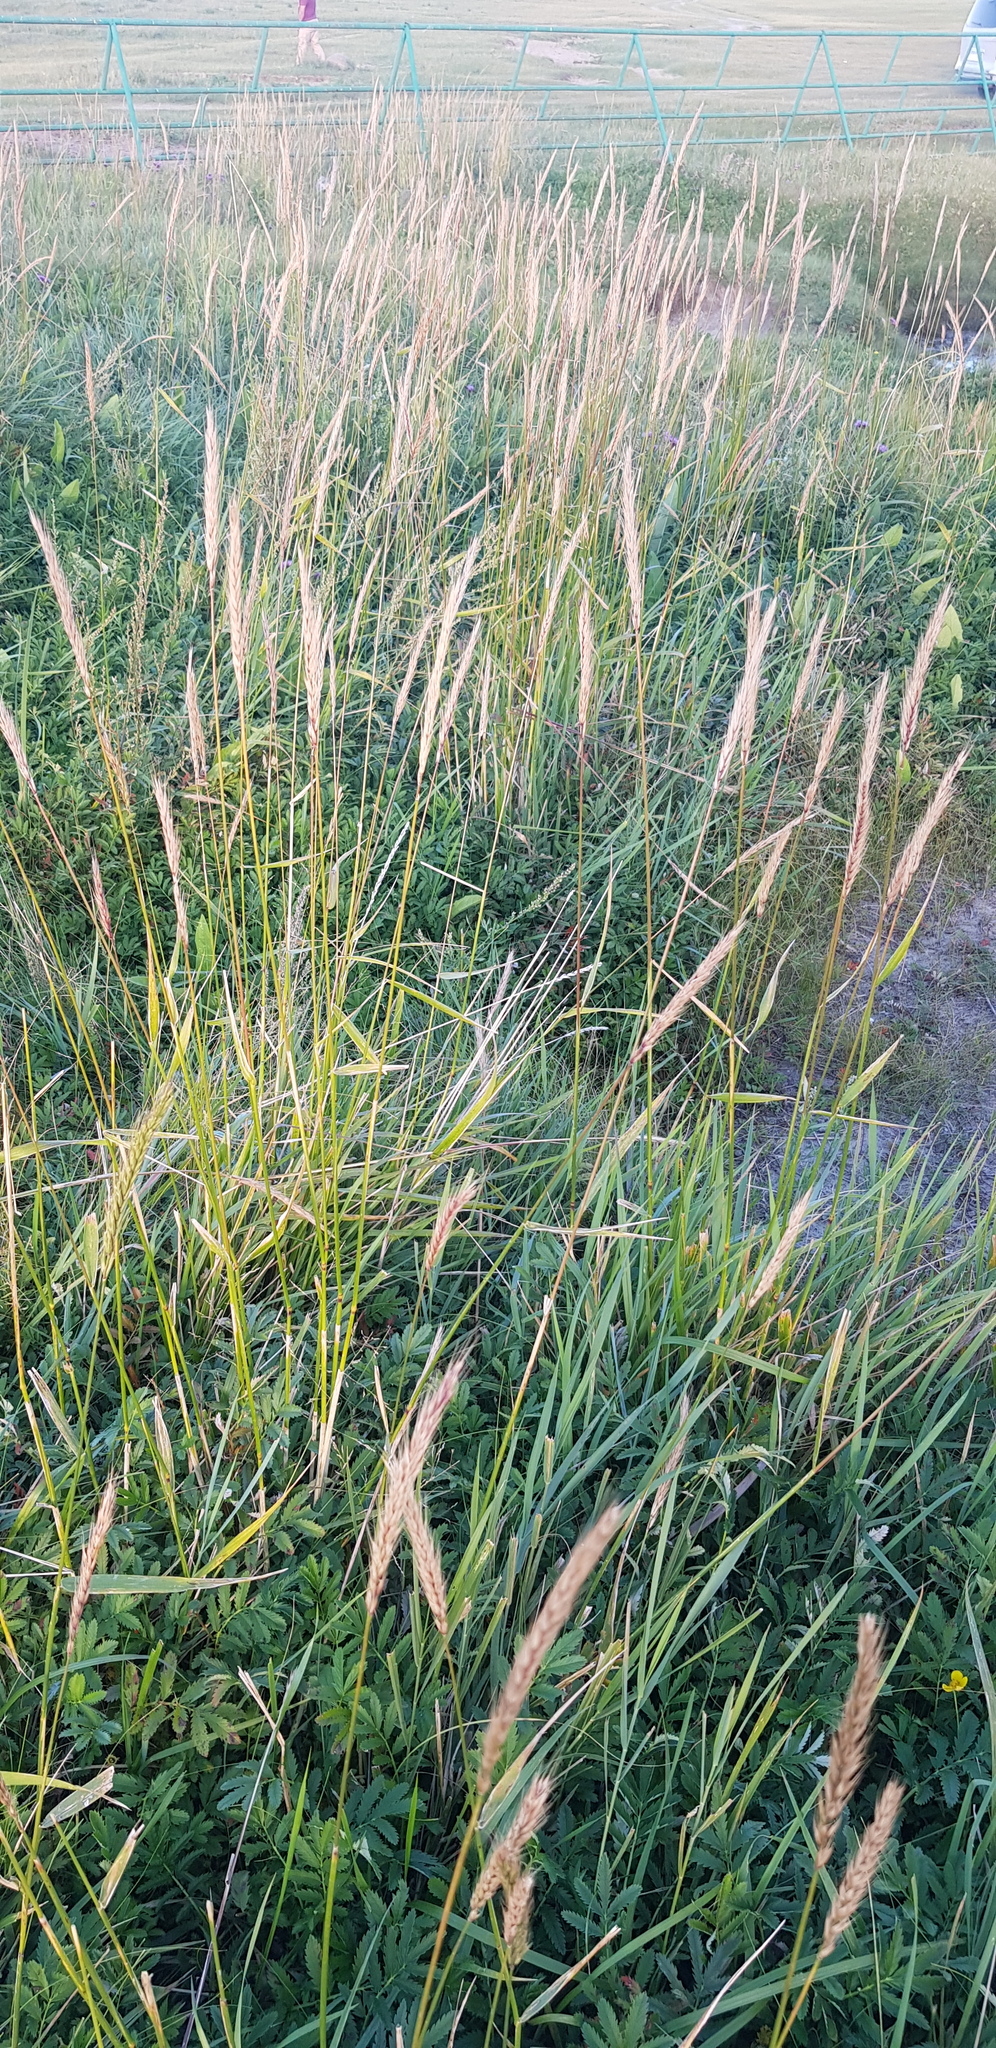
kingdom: Plantae
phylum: Tracheophyta
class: Liliopsida
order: Poales
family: Poaceae
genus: Elymus
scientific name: Elymus repens
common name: Quackgrass
